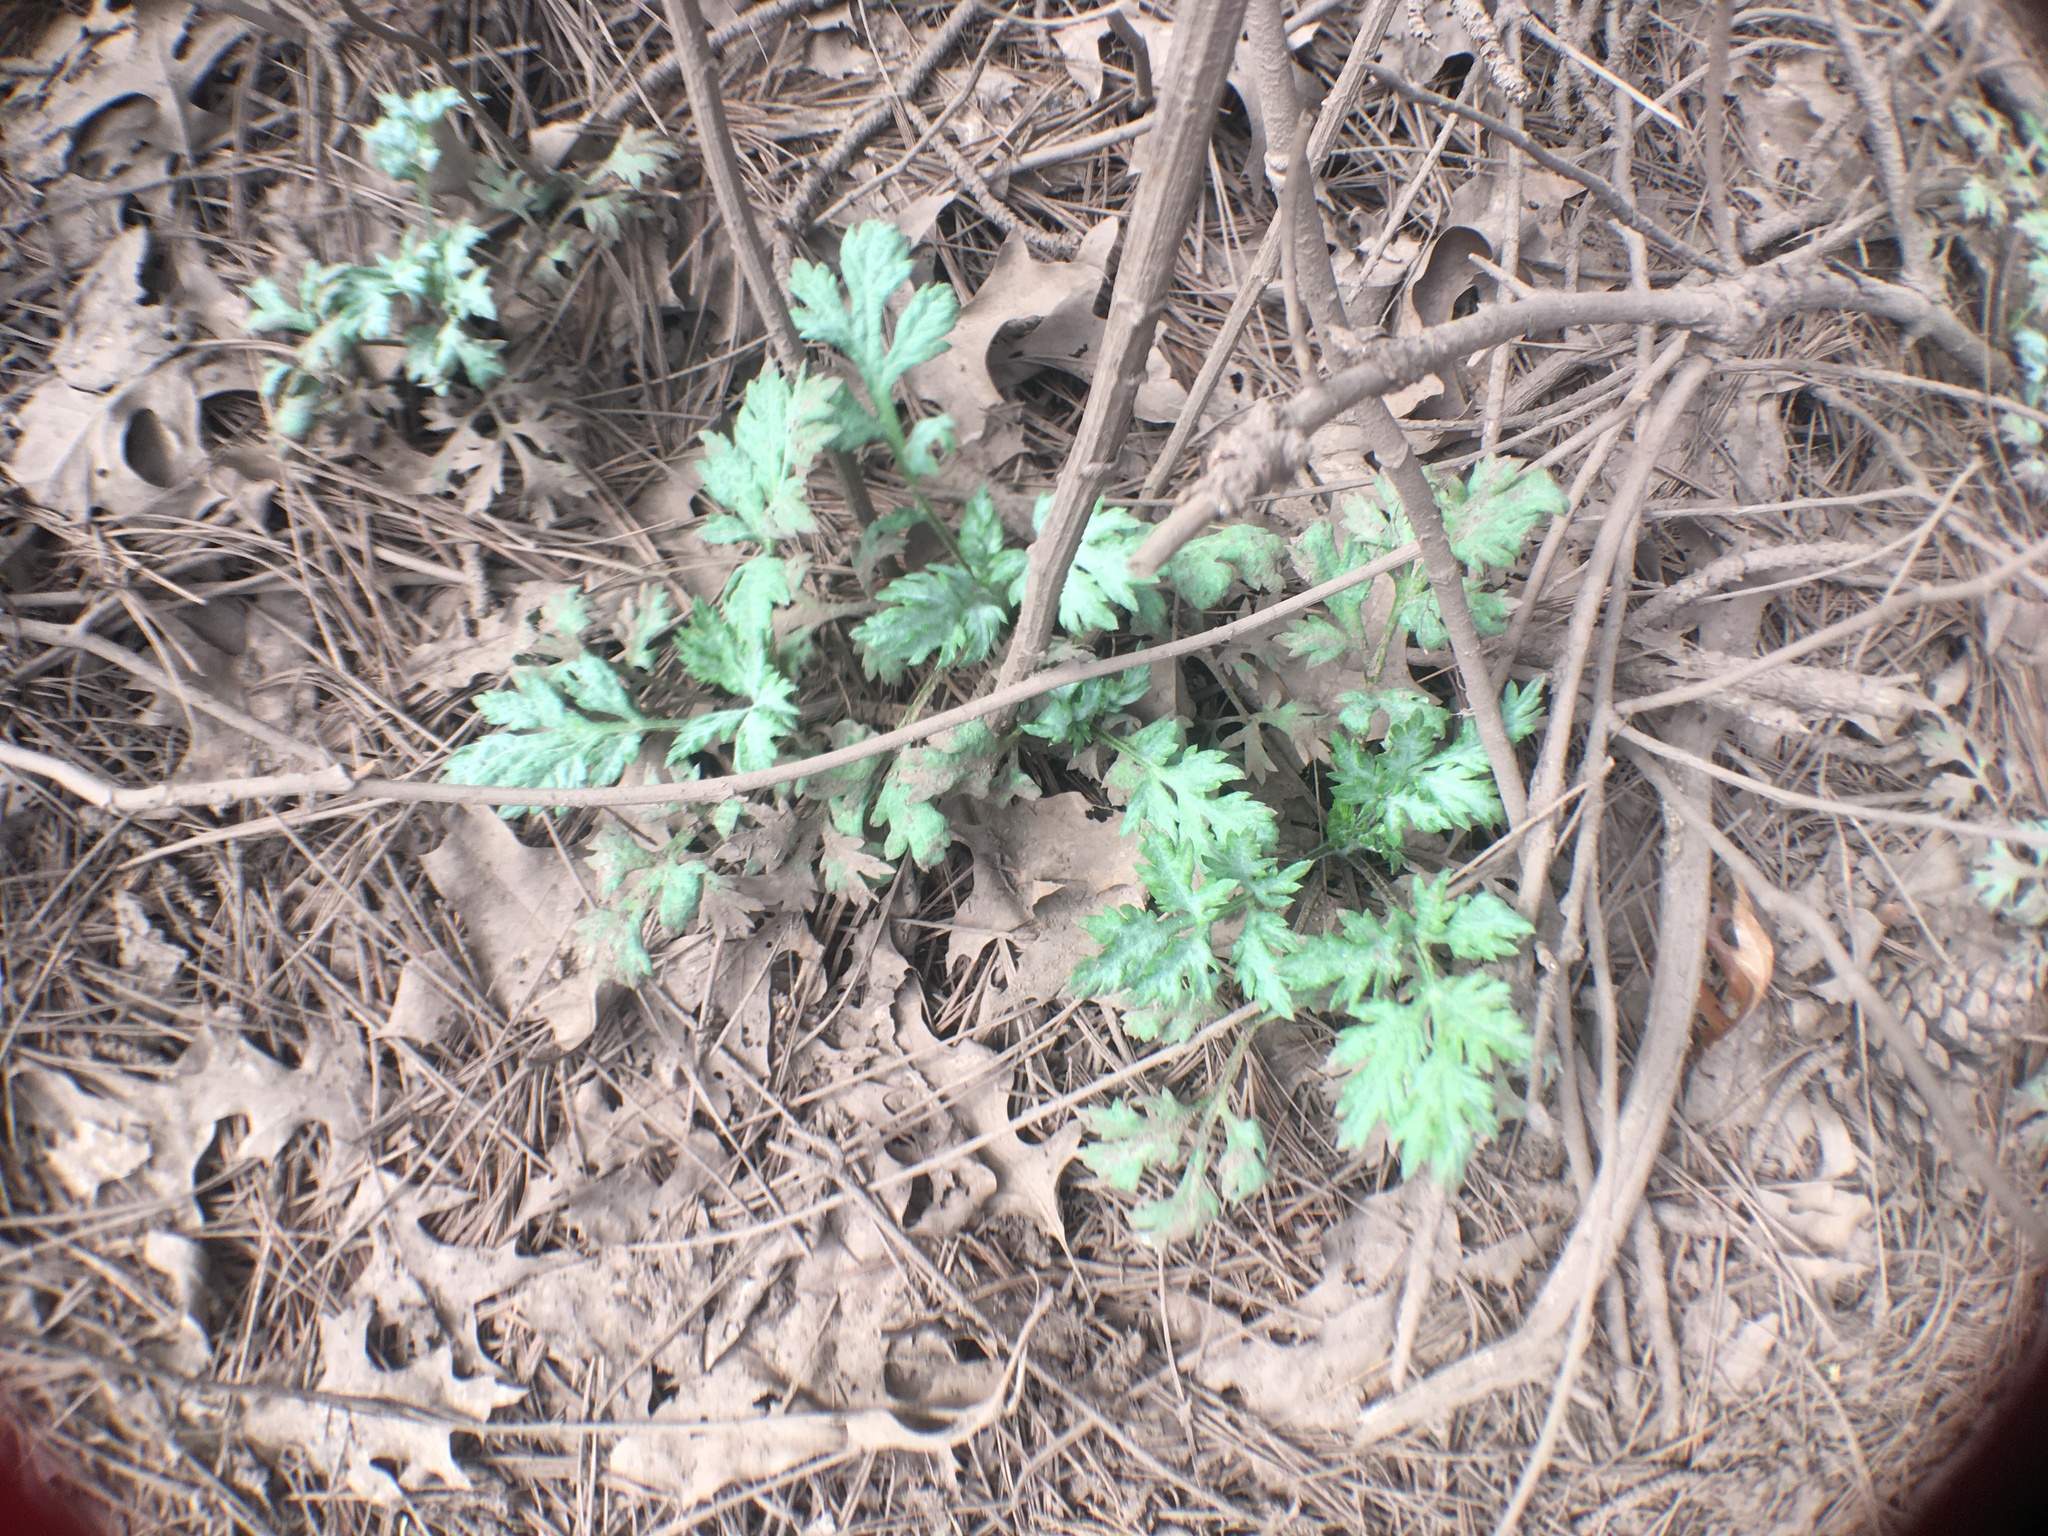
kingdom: Plantae
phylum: Tracheophyta
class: Magnoliopsida
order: Asterales
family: Asteraceae
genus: Artemisia
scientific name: Artemisia vulgaris
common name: Mugwort
